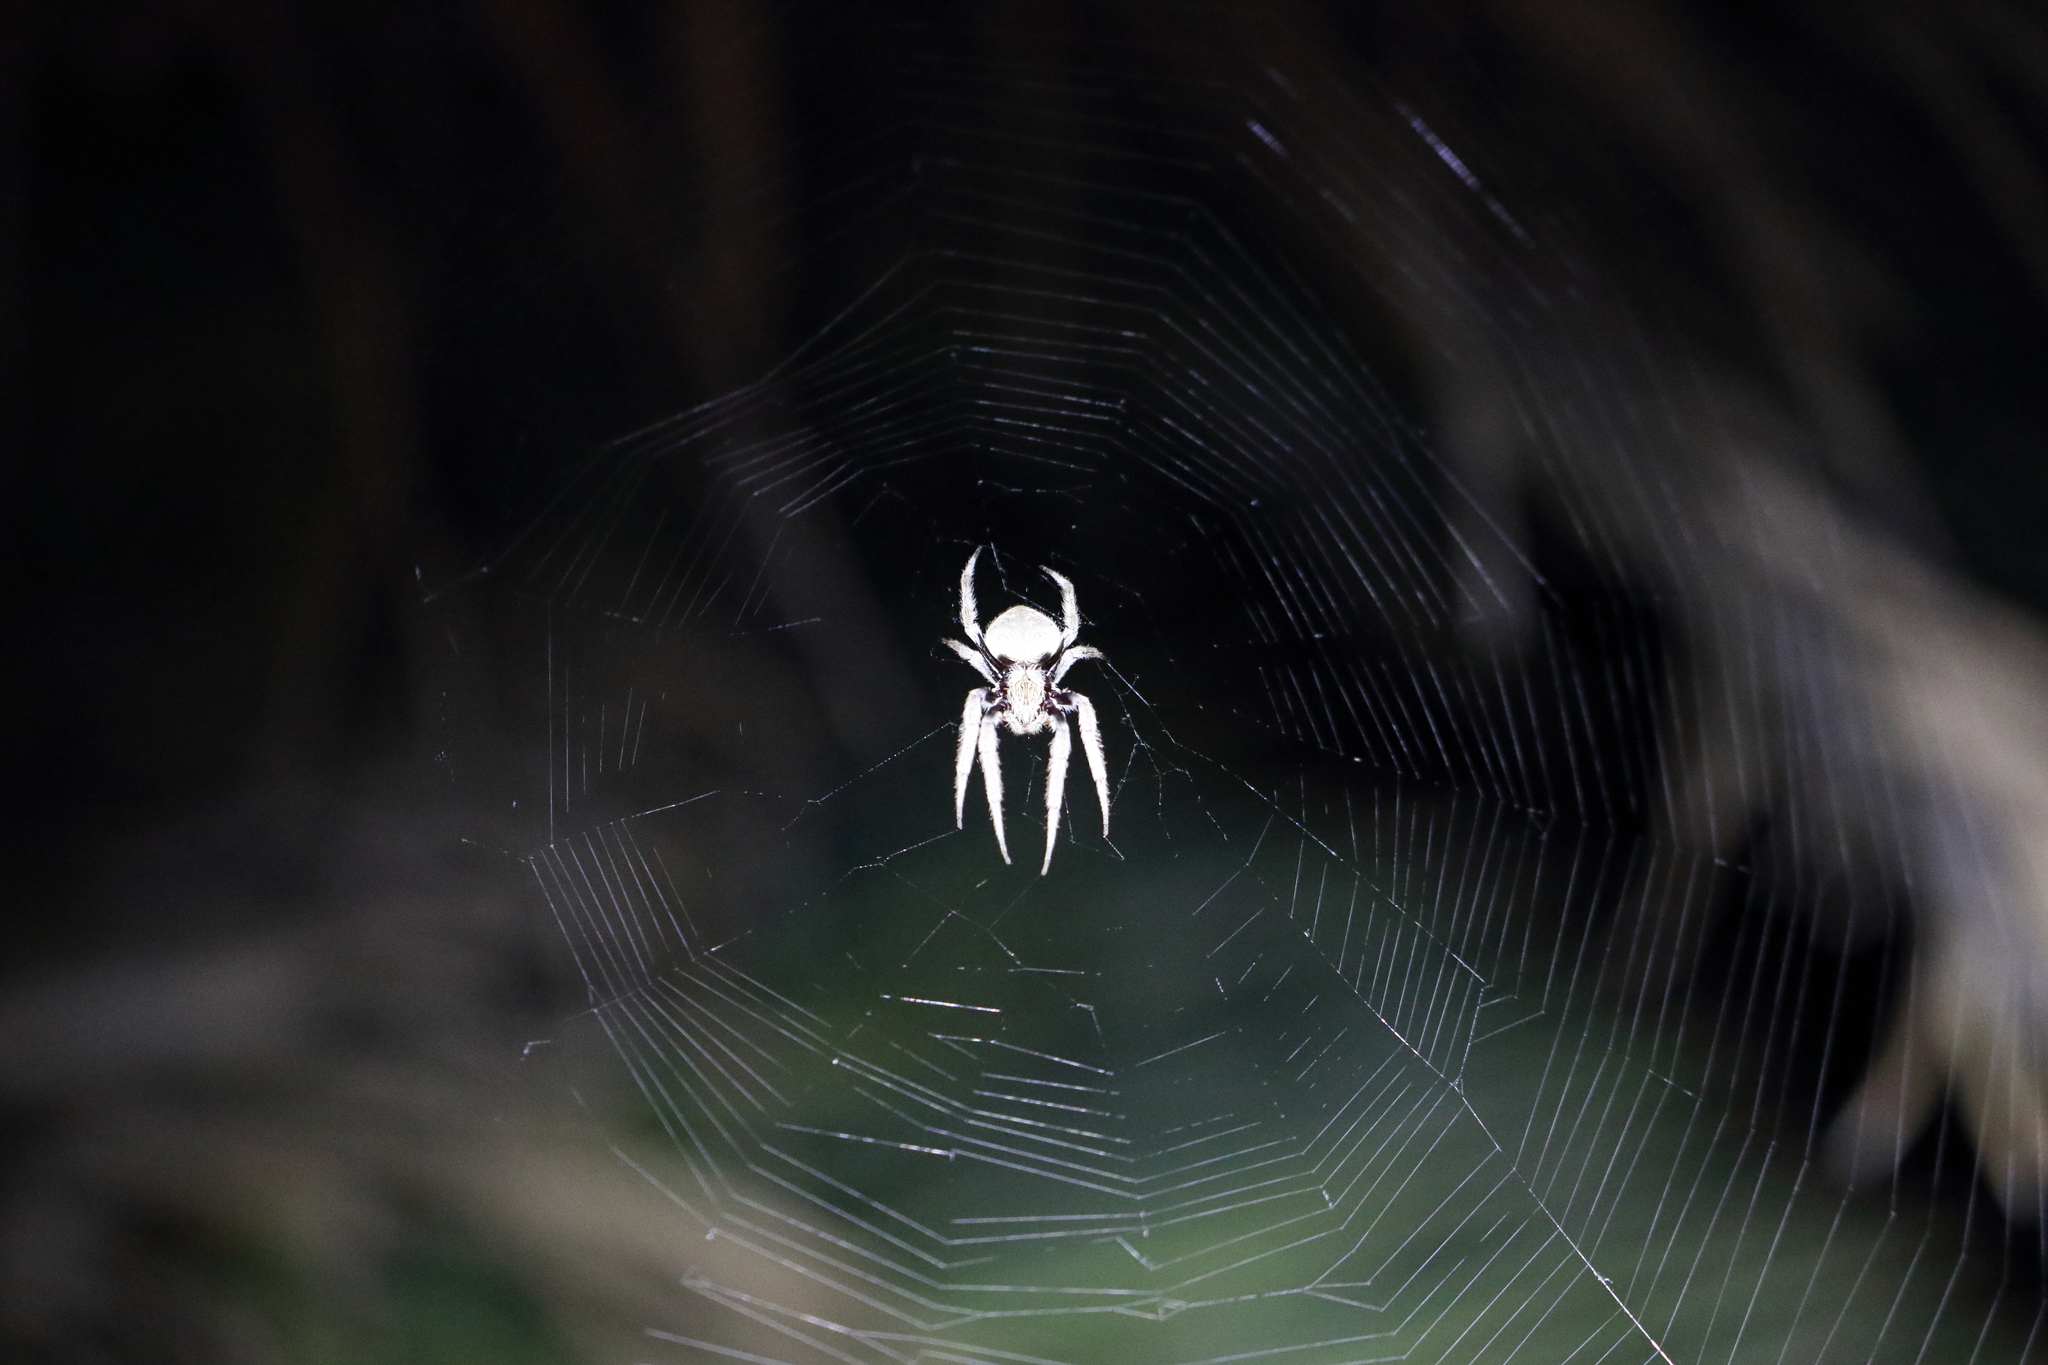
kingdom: Animalia
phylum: Arthropoda
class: Arachnida
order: Araneae
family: Araneidae
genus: Hortophora
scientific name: Hortophora transmarina
